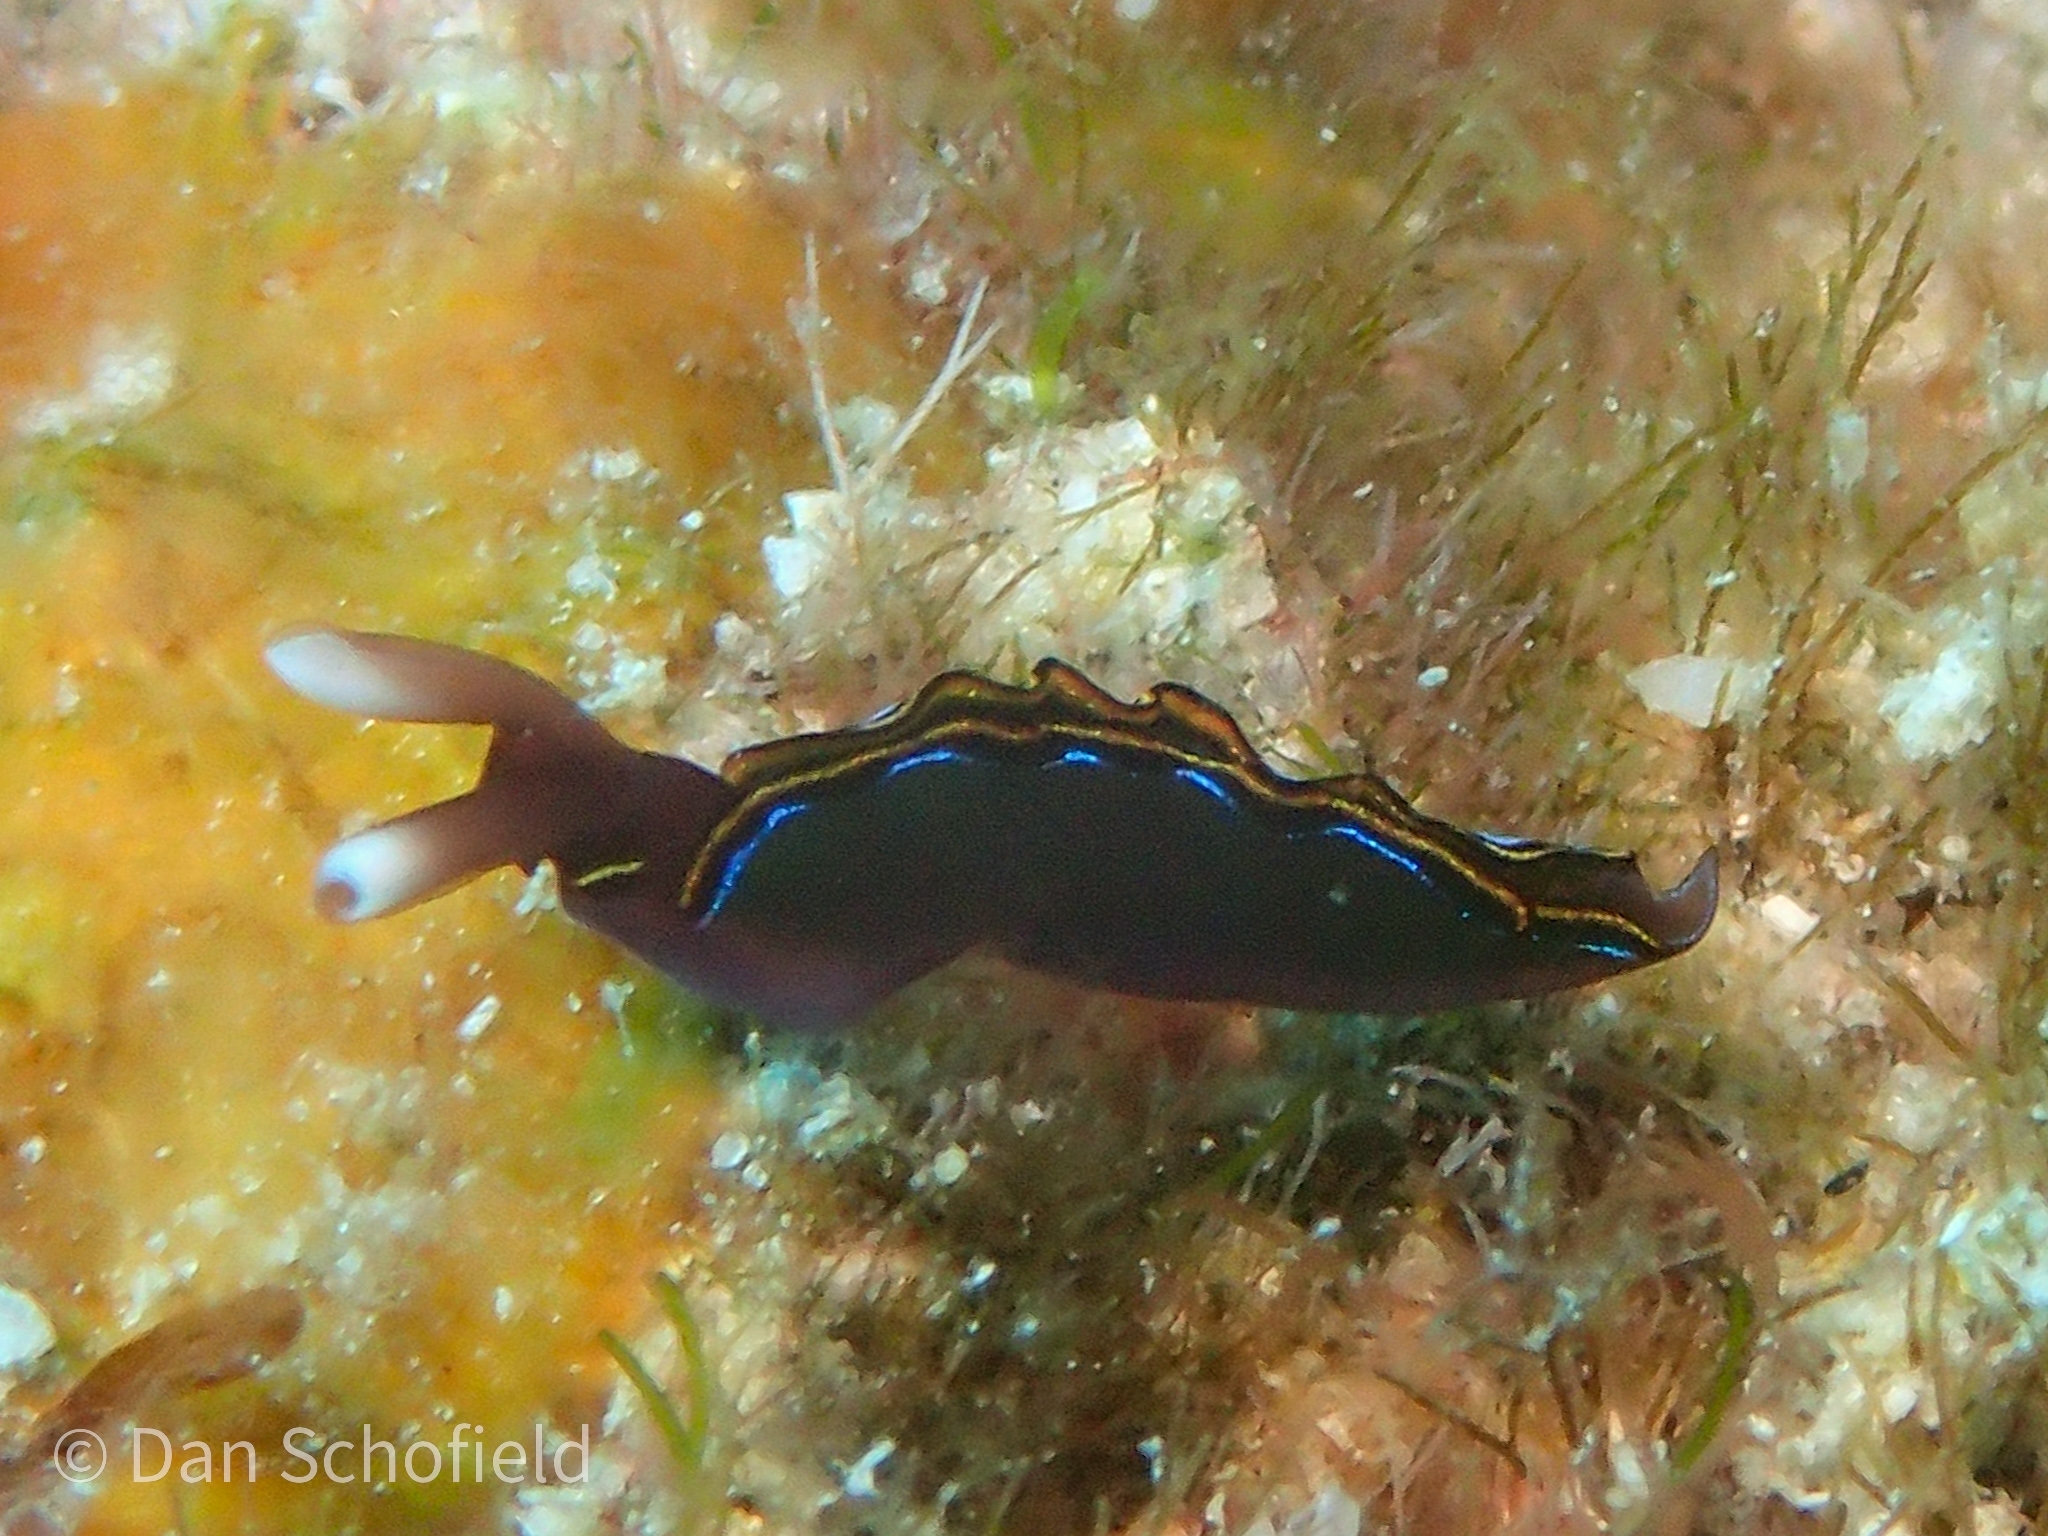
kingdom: Animalia
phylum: Mollusca
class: Gastropoda
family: Plakobranchidae
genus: Thuridilla
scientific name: Thuridilla livida
